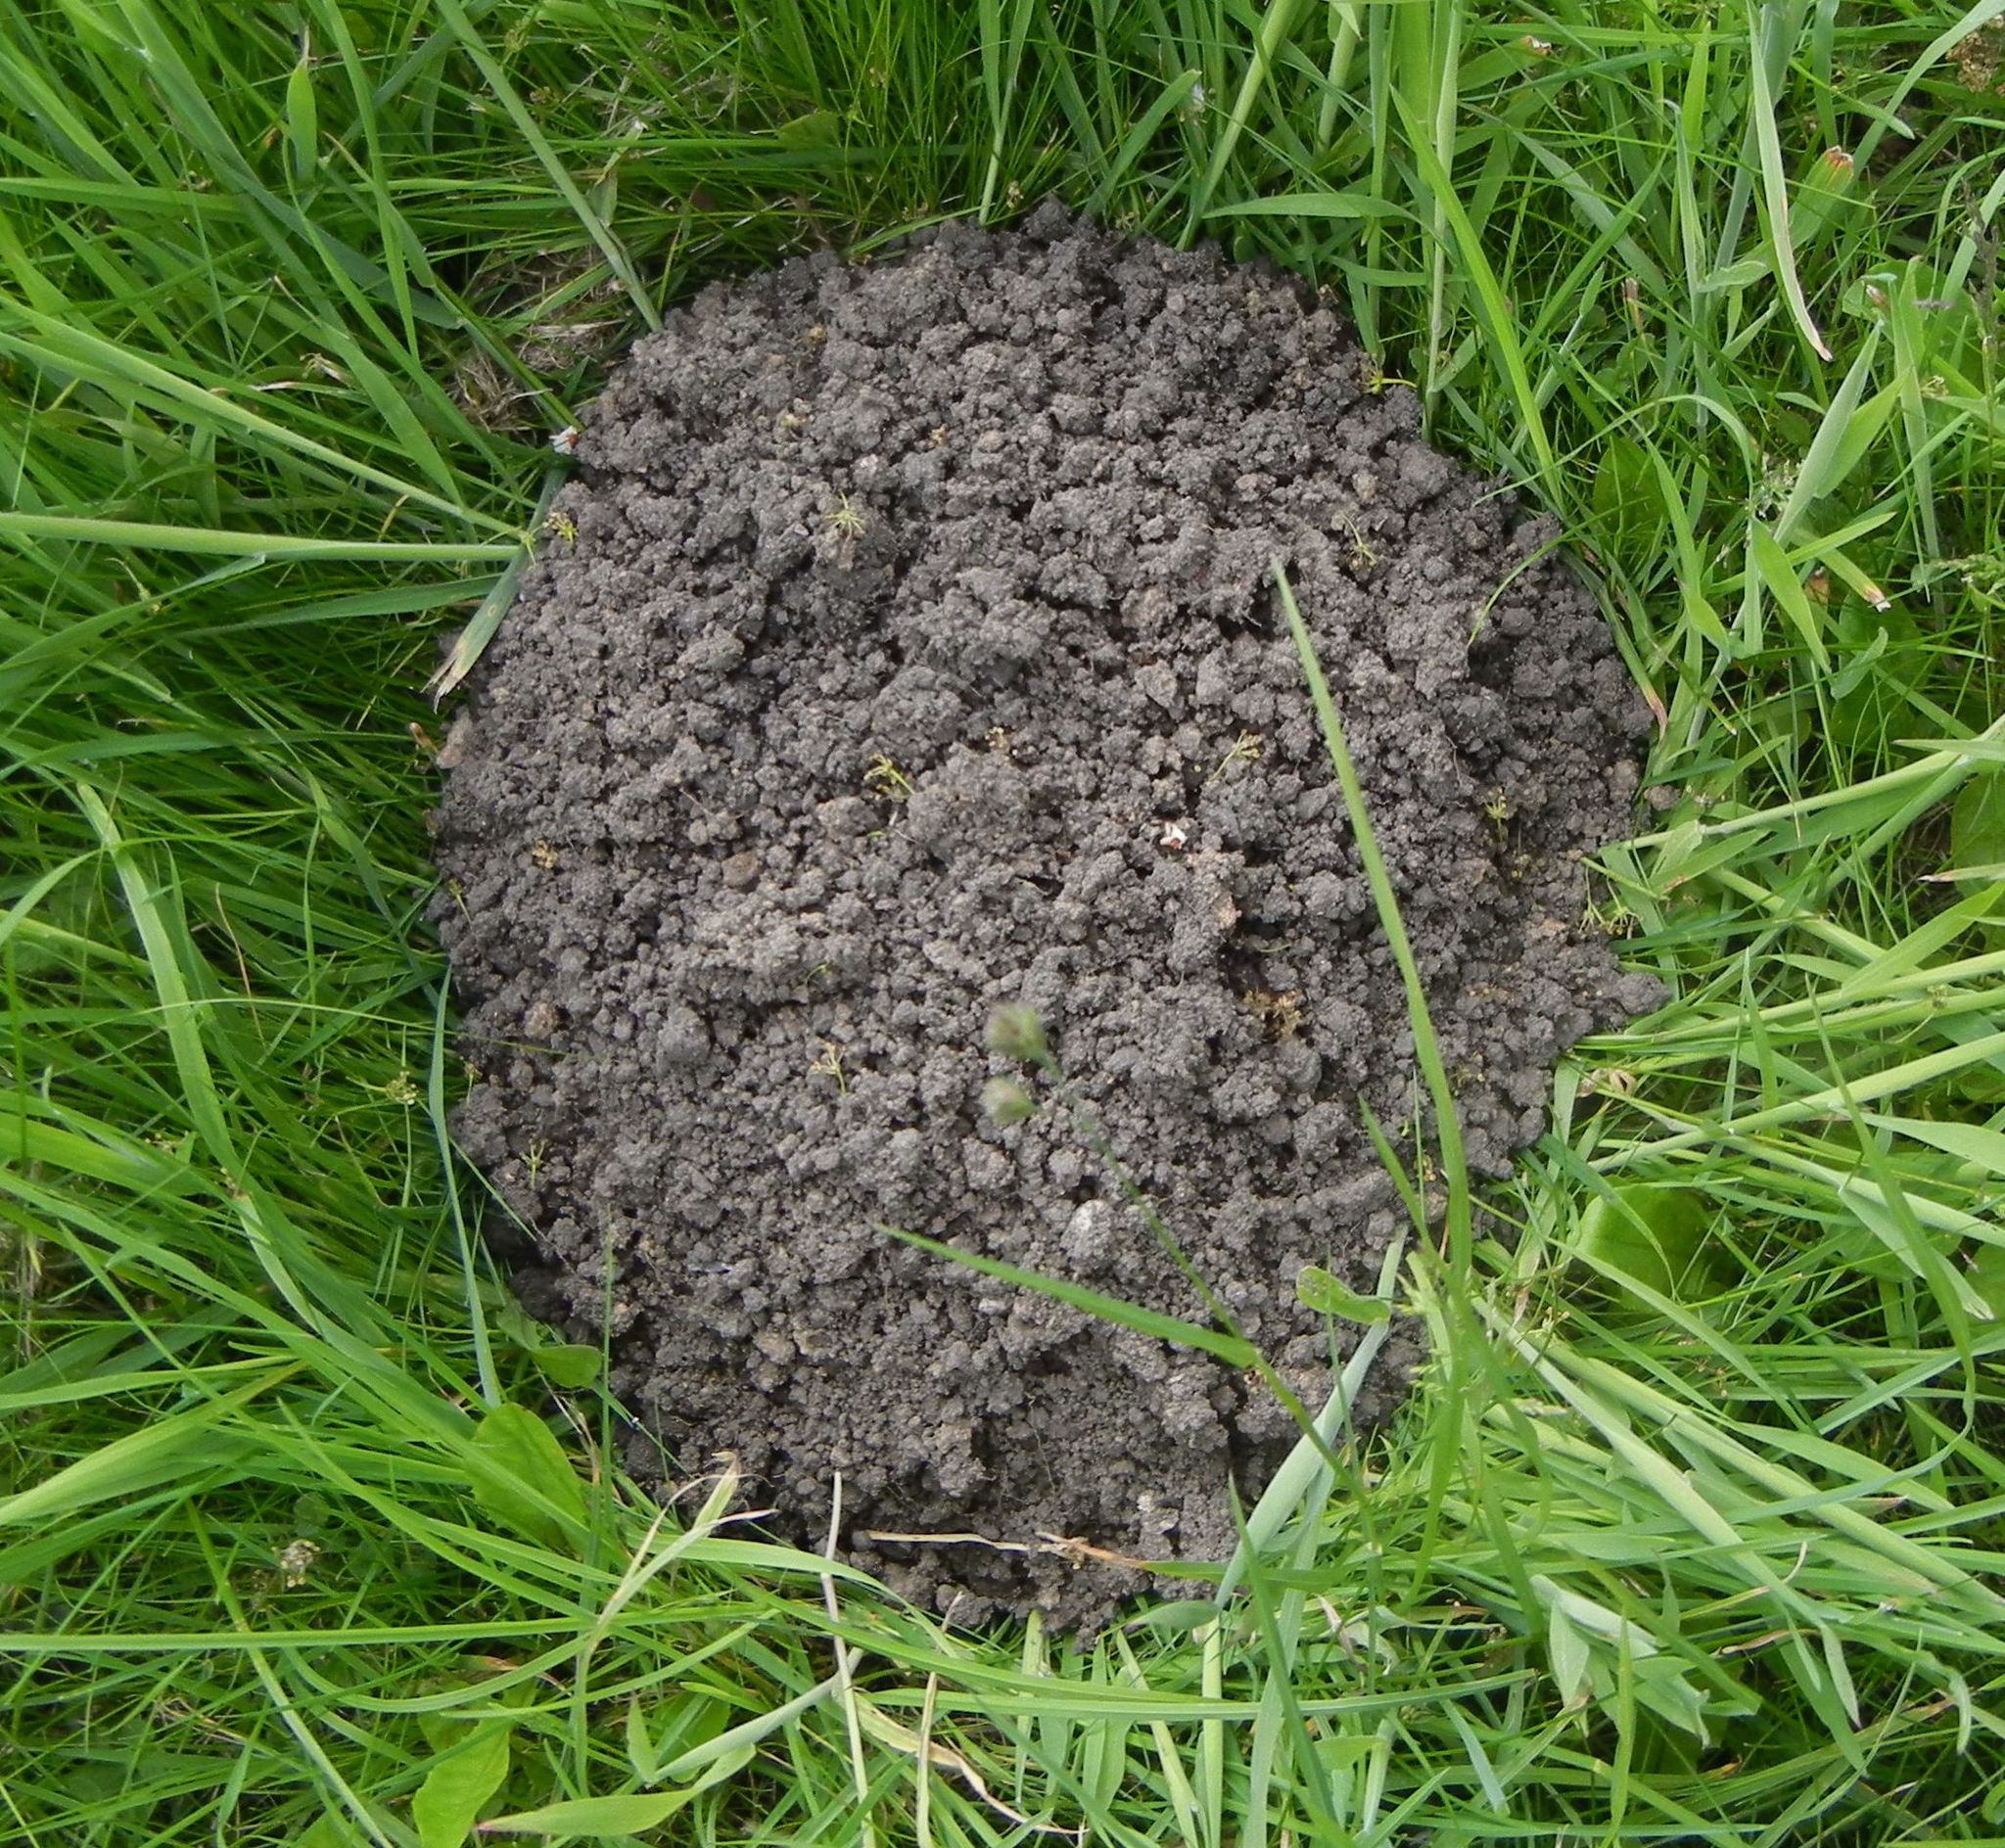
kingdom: Animalia
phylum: Chordata
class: Mammalia
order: Soricomorpha
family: Talpidae
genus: Talpa
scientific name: Talpa europaea
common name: European mole
